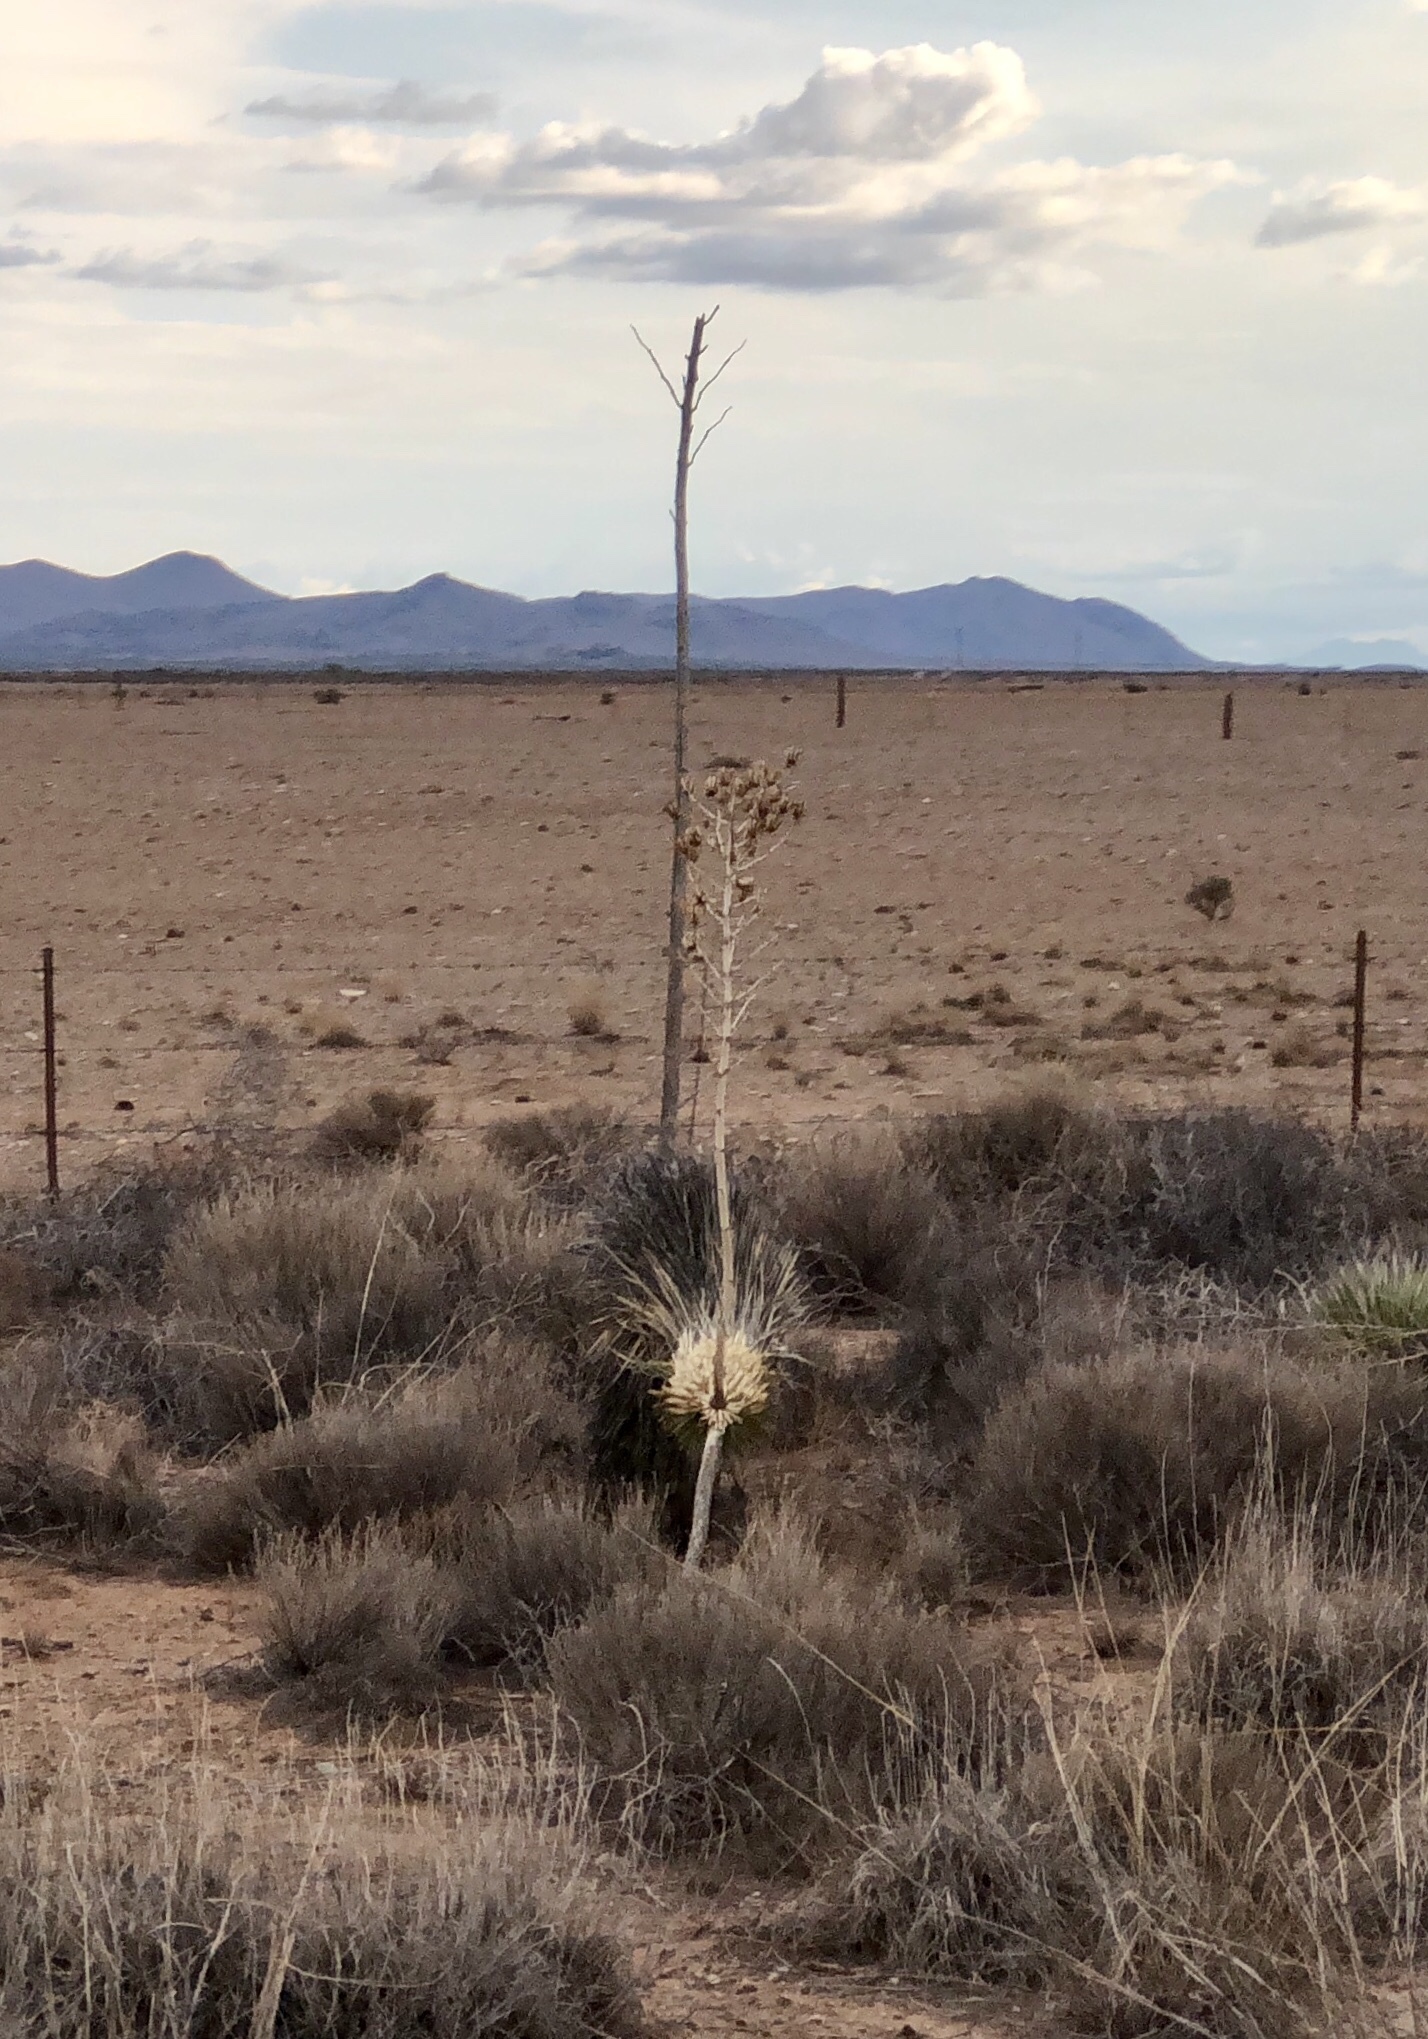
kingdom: Plantae
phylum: Tracheophyta
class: Liliopsida
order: Asparagales
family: Asparagaceae
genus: Yucca
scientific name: Yucca elata
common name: Palmella
